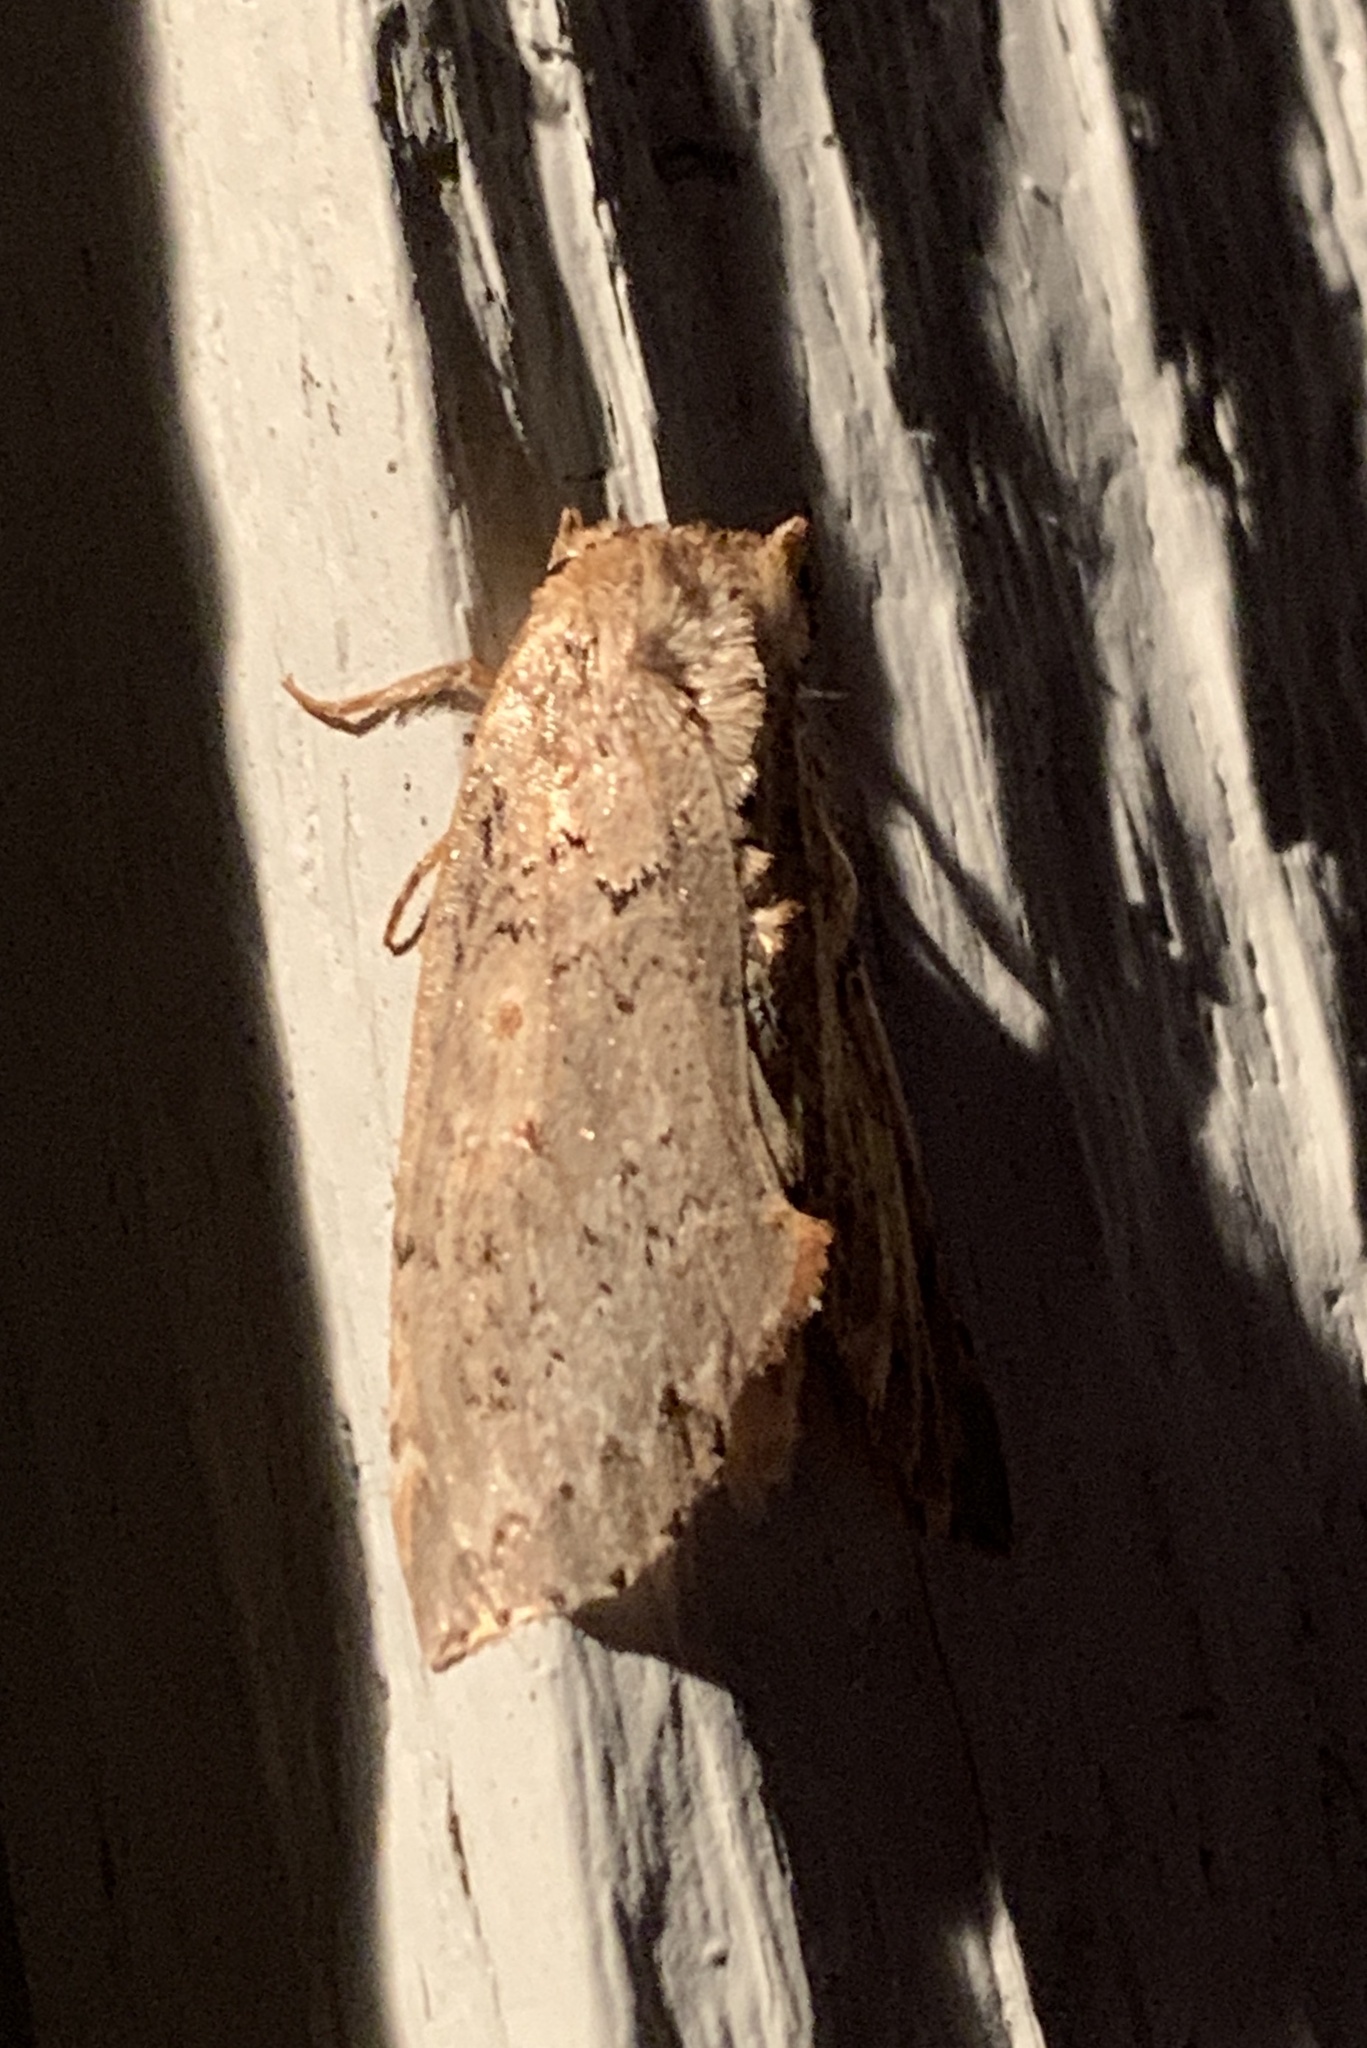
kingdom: Animalia
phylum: Arthropoda
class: Insecta
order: Lepidoptera
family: Drepanidae
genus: Pseudothyatira
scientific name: Pseudothyatira cymatophoroides
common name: Tufted thyatirid moth
